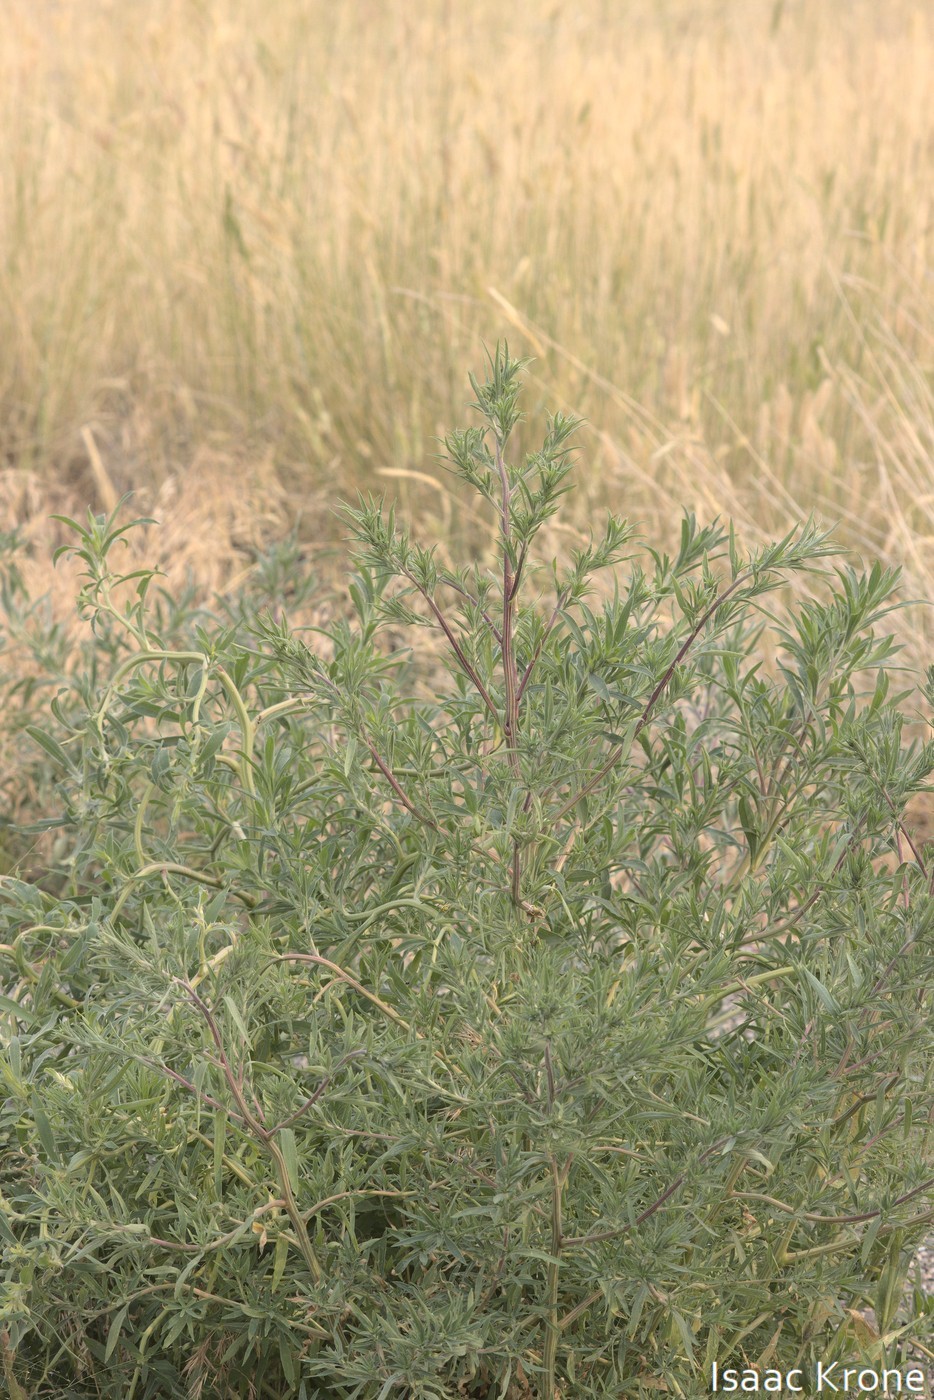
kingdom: Plantae
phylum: Tracheophyta
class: Magnoliopsida
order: Caryophyllales
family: Amaranthaceae
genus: Bassia
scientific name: Bassia scoparia
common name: Belvedere
